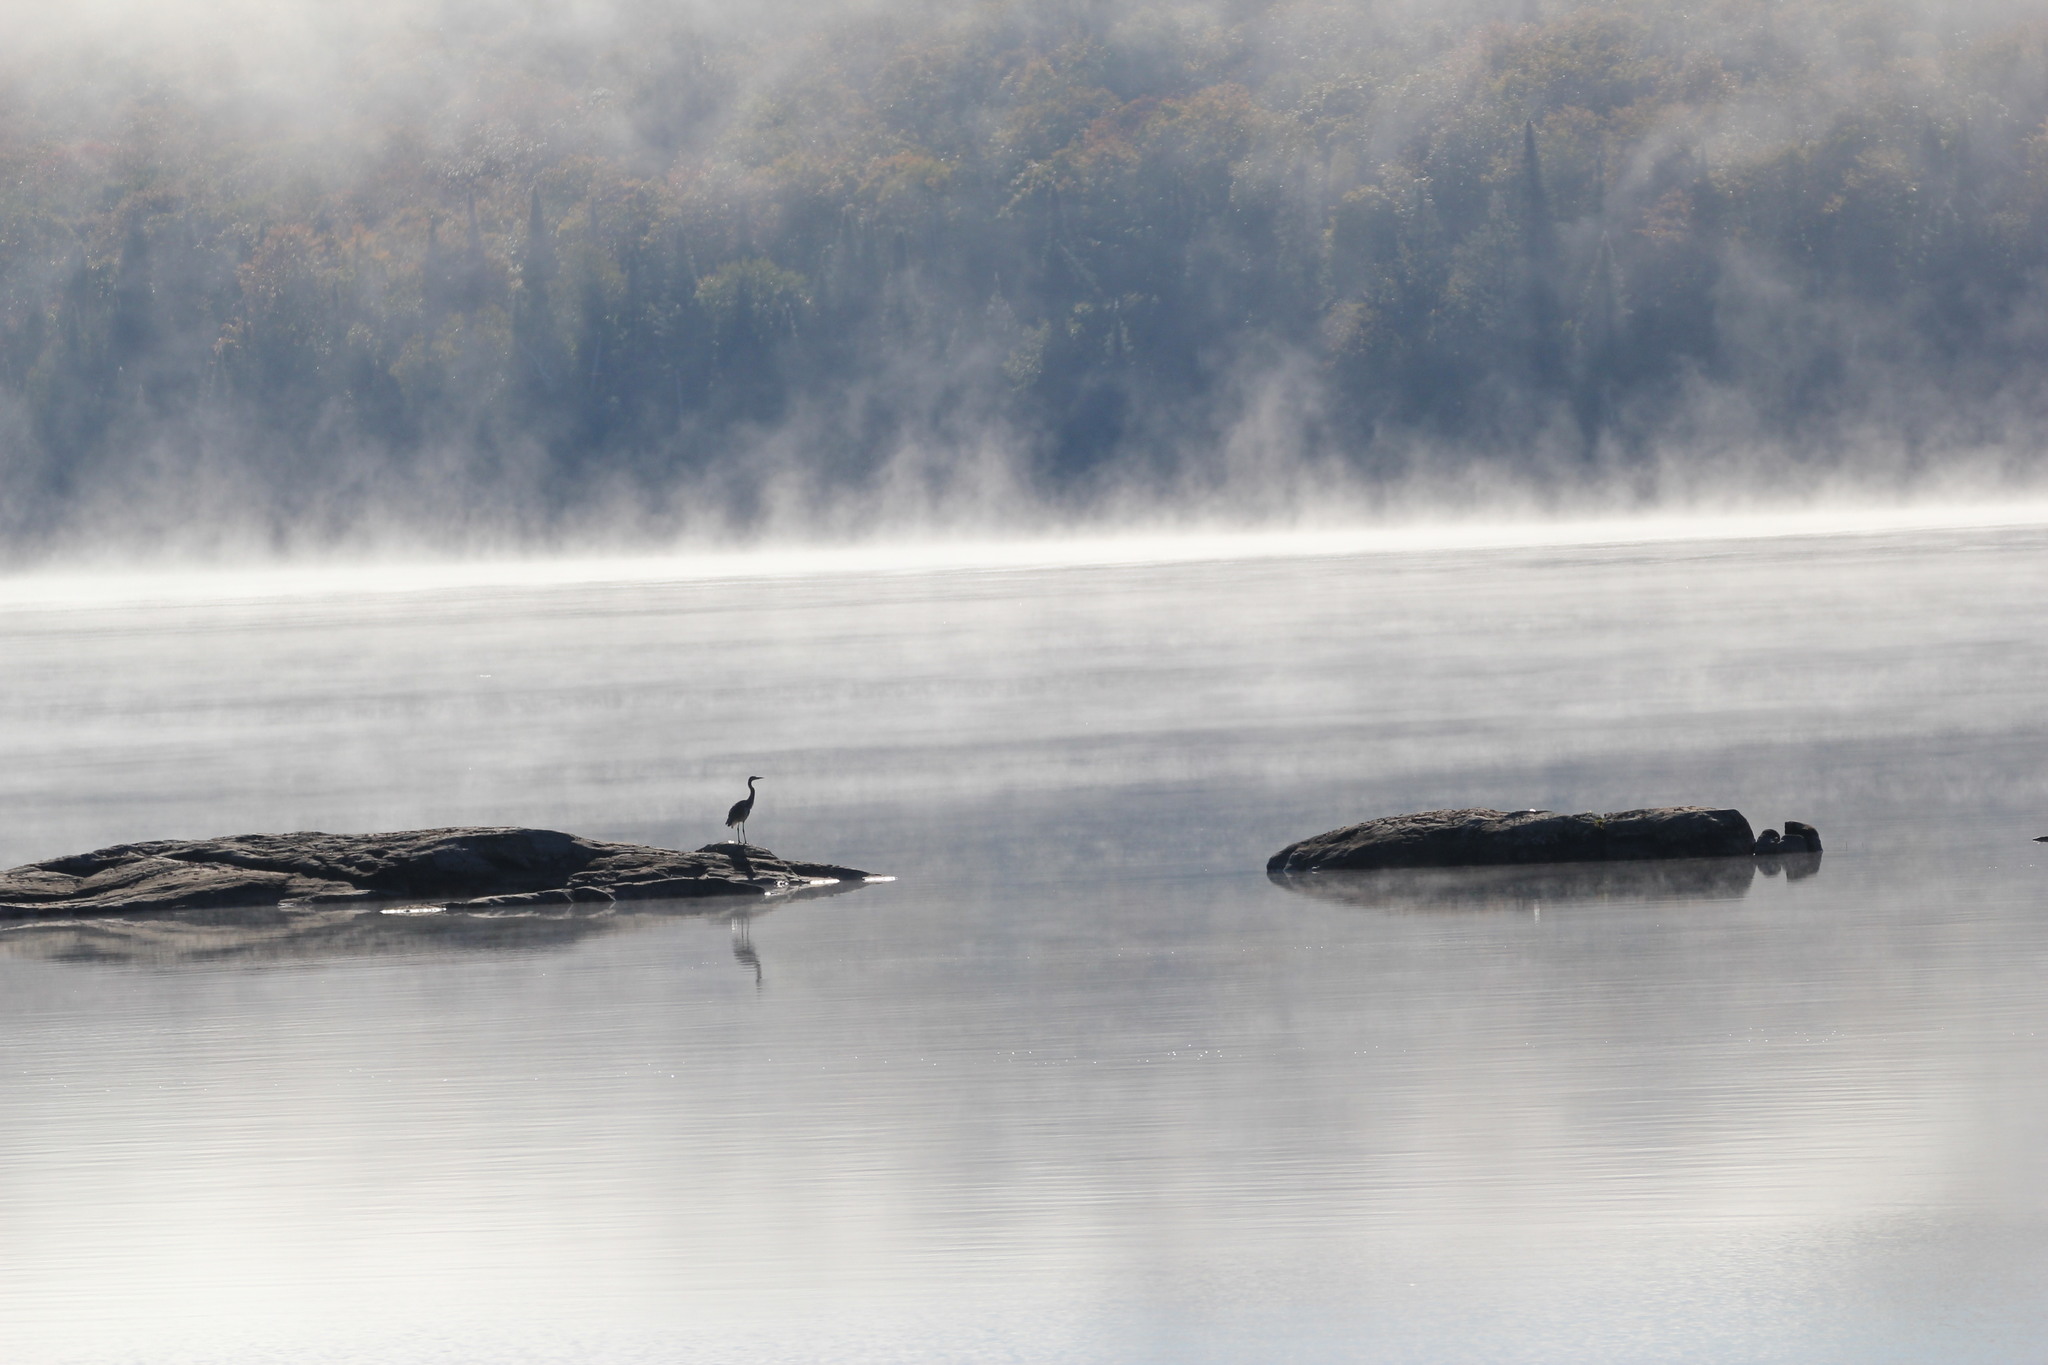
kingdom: Animalia
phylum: Chordata
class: Aves
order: Pelecaniformes
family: Ardeidae
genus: Ardea
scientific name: Ardea herodias
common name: Great blue heron
